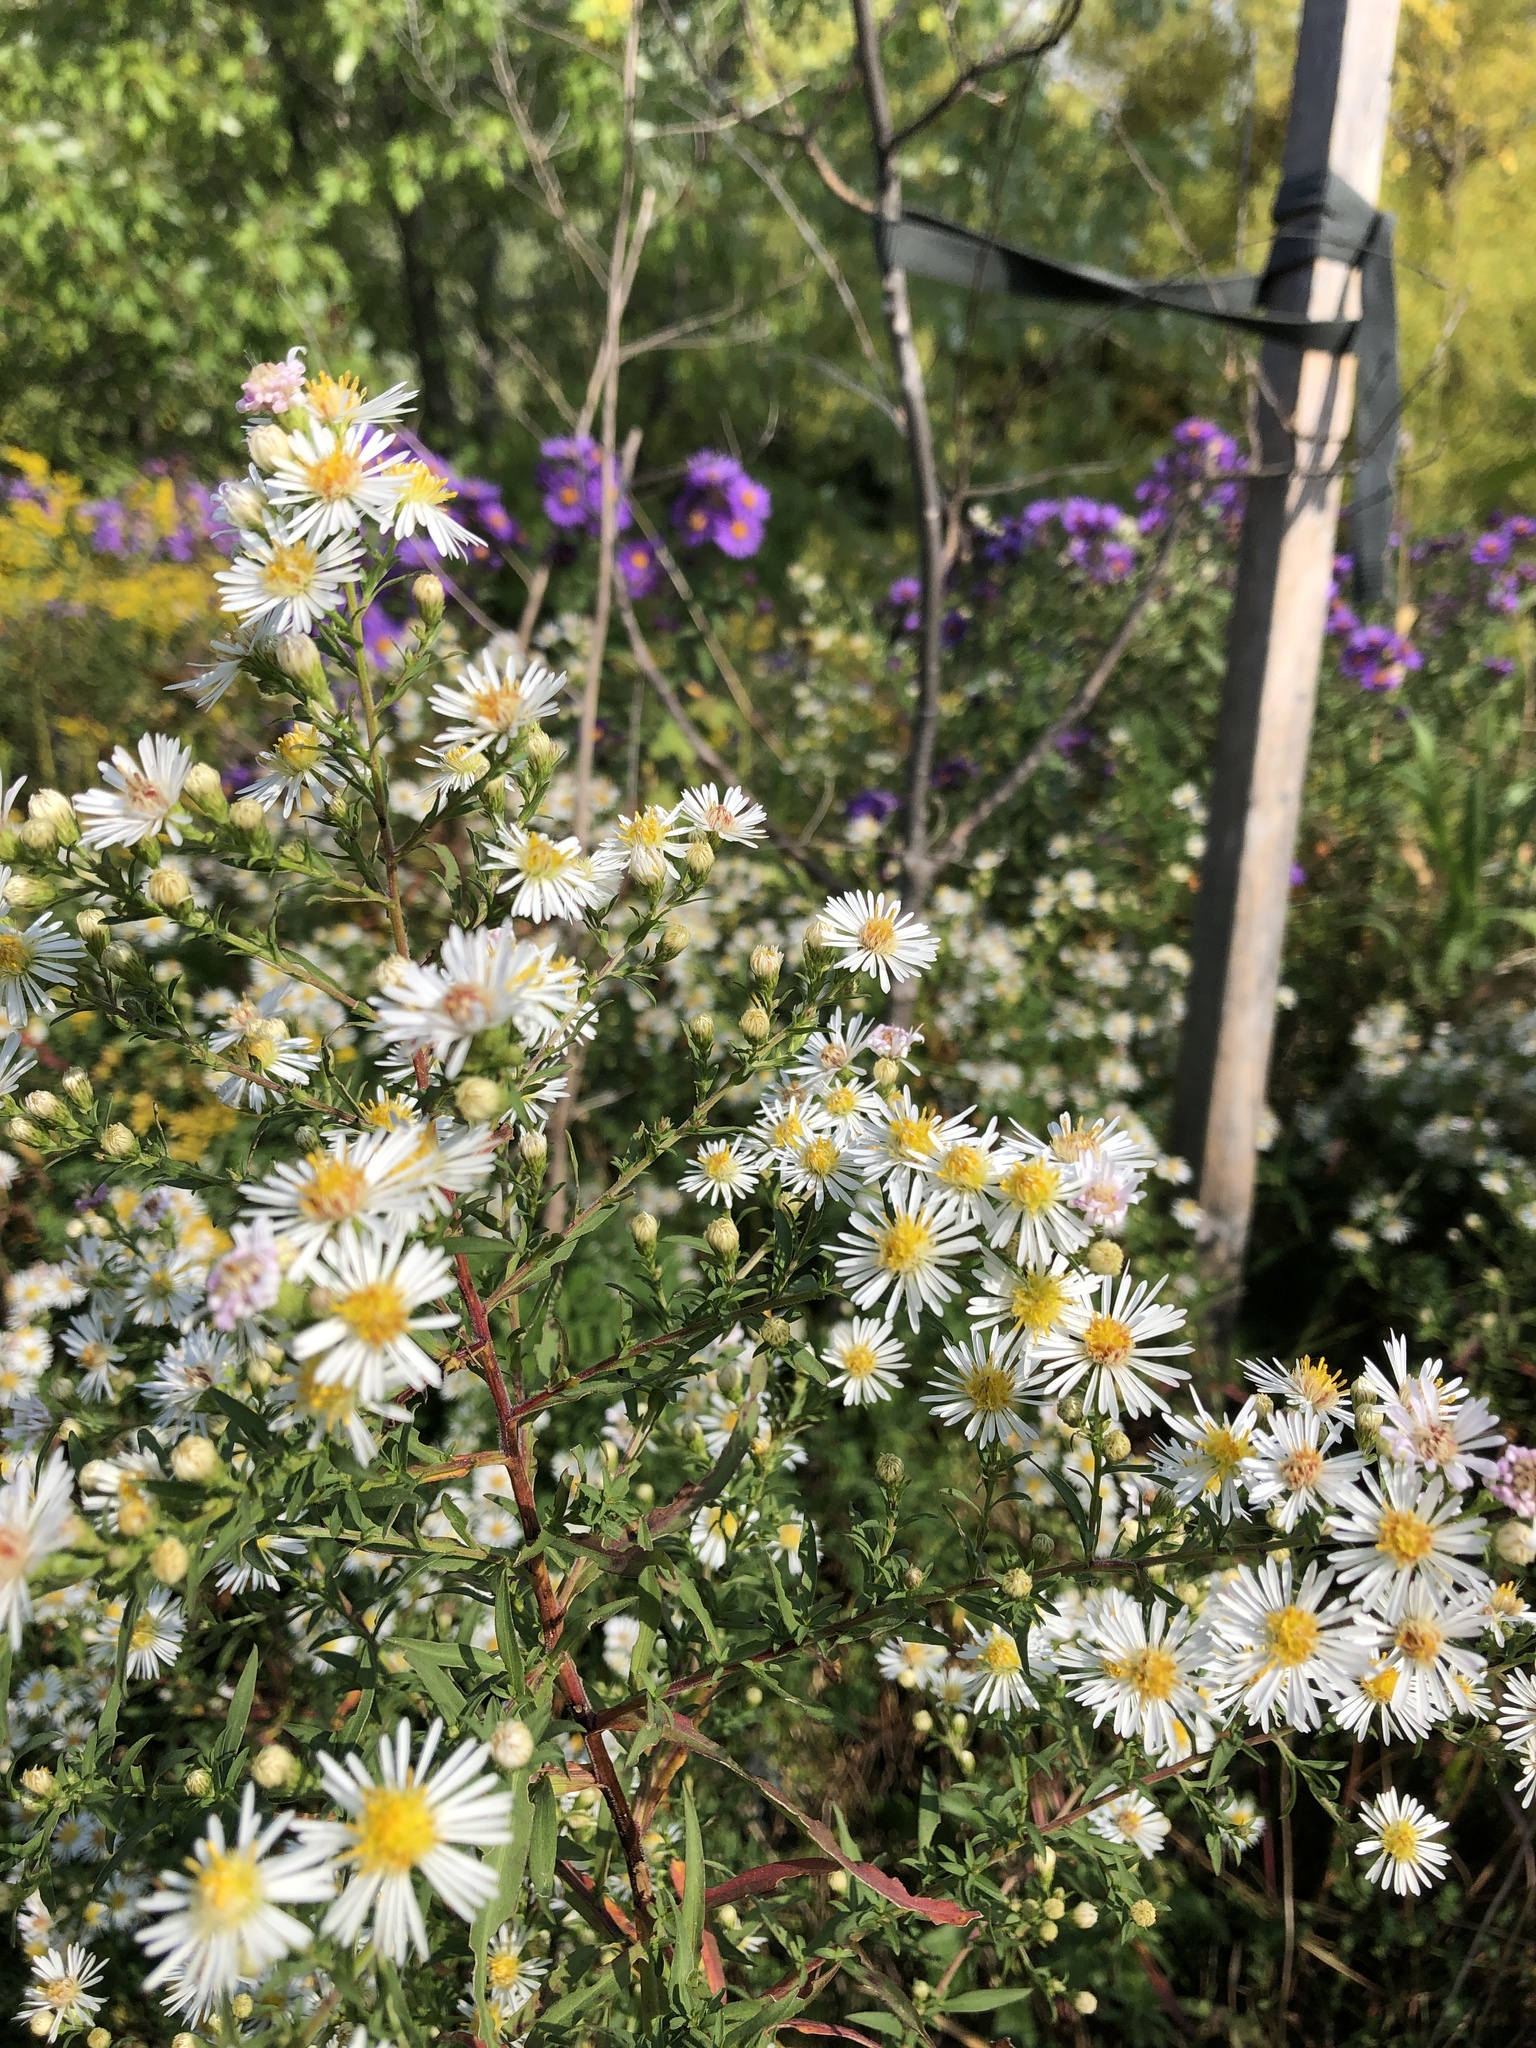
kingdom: Plantae
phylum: Tracheophyta
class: Magnoliopsida
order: Asterales
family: Asteraceae
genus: Symphyotrichum
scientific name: Symphyotrichum lanceolatum
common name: Panicled aster
